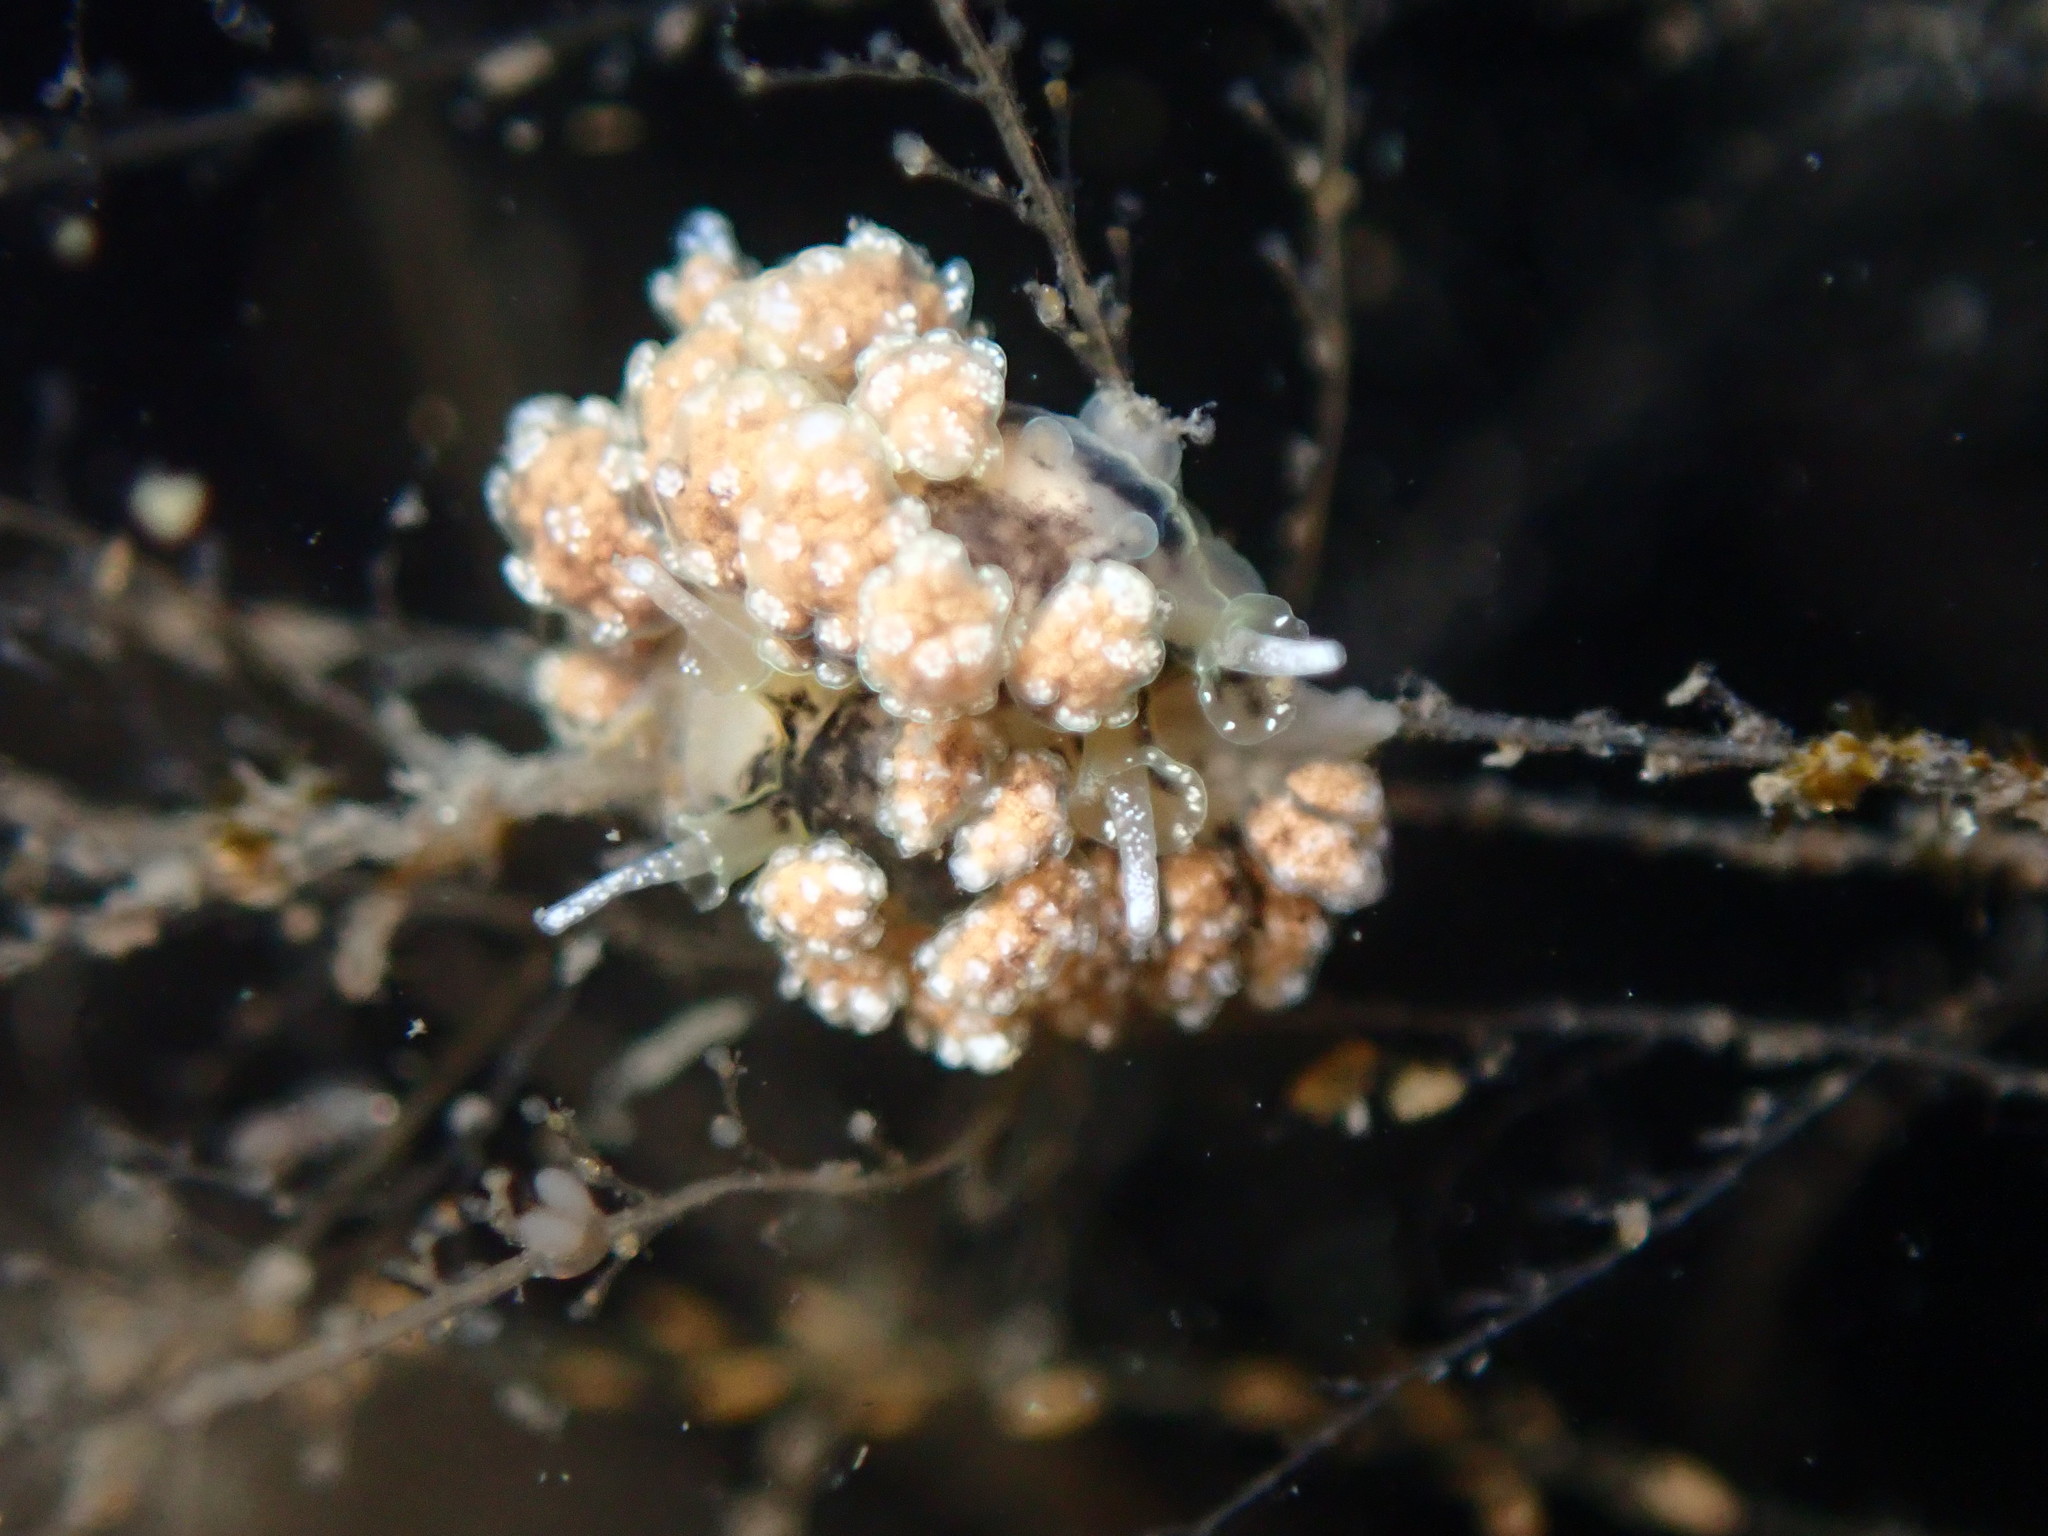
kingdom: Animalia
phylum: Mollusca
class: Gastropoda
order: Nudibranchia
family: Dotidae
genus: Doto
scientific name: Doto kya
